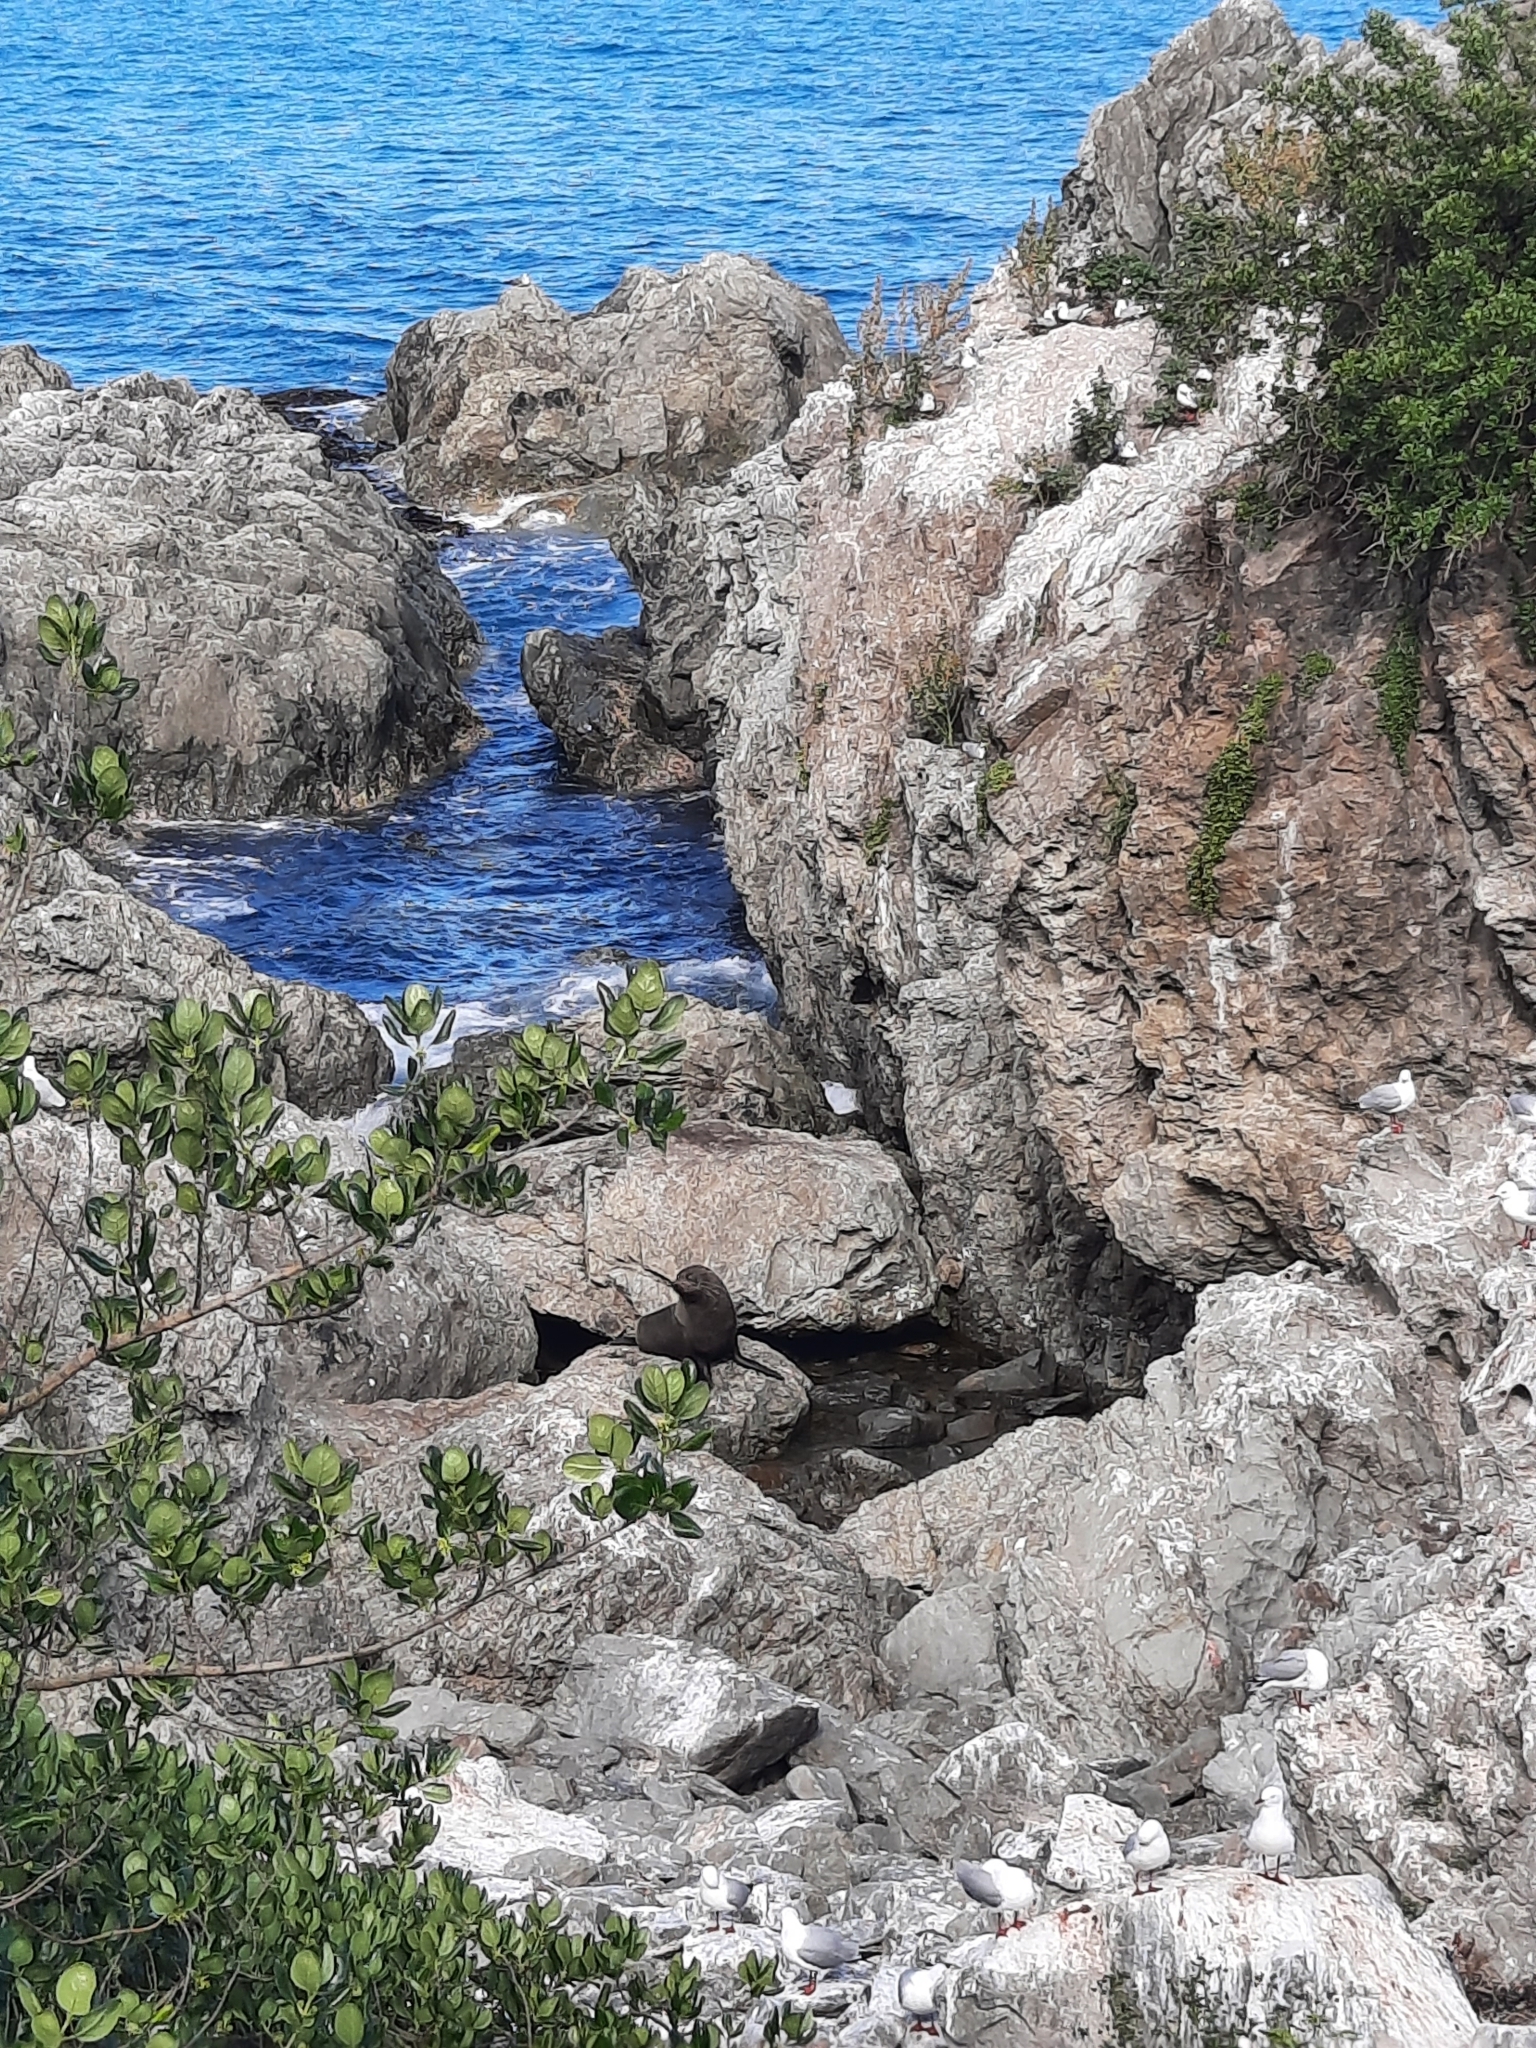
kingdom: Animalia
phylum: Chordata
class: Mammalia
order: Carnivora
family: Otariidae
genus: Arctocephalus
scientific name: Arctocephalus forsteri
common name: New zealand fur seal
